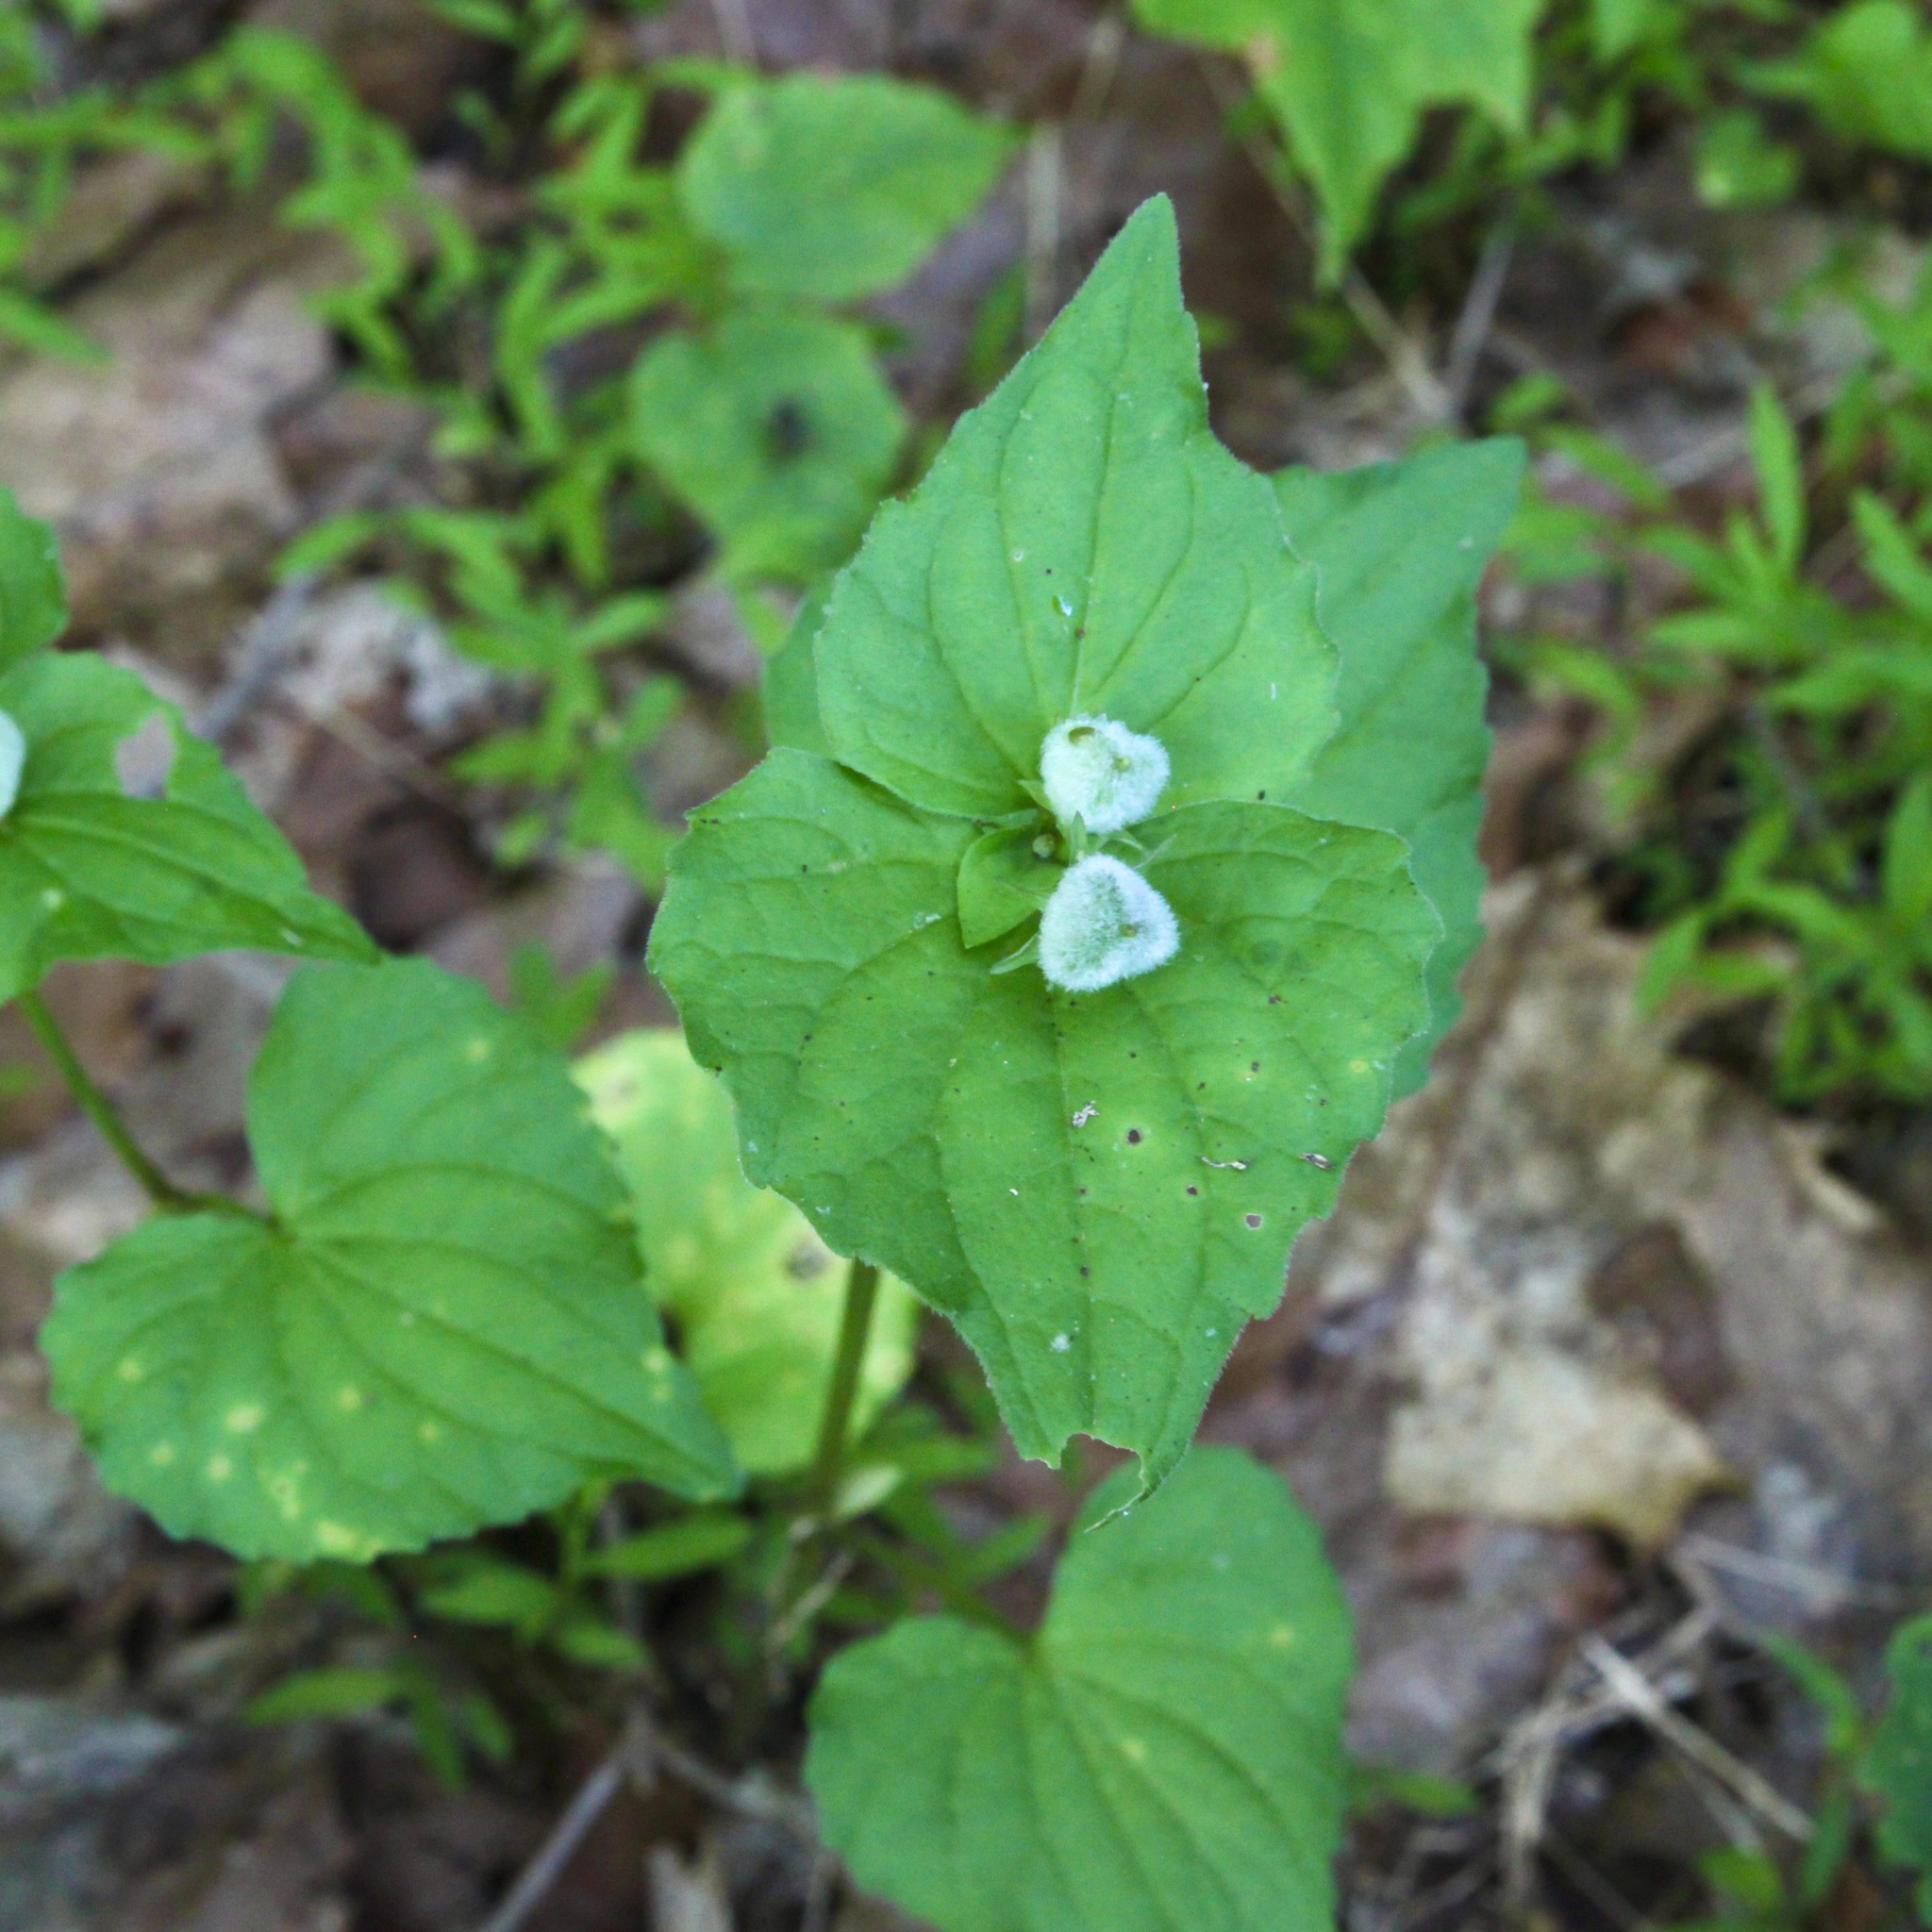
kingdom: Plantae
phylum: Tracheophyta
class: Magnoliopsida
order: Malpighiales
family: Violaceae
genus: Viola
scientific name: Viola eriocarpa
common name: Smooth yellow violet
